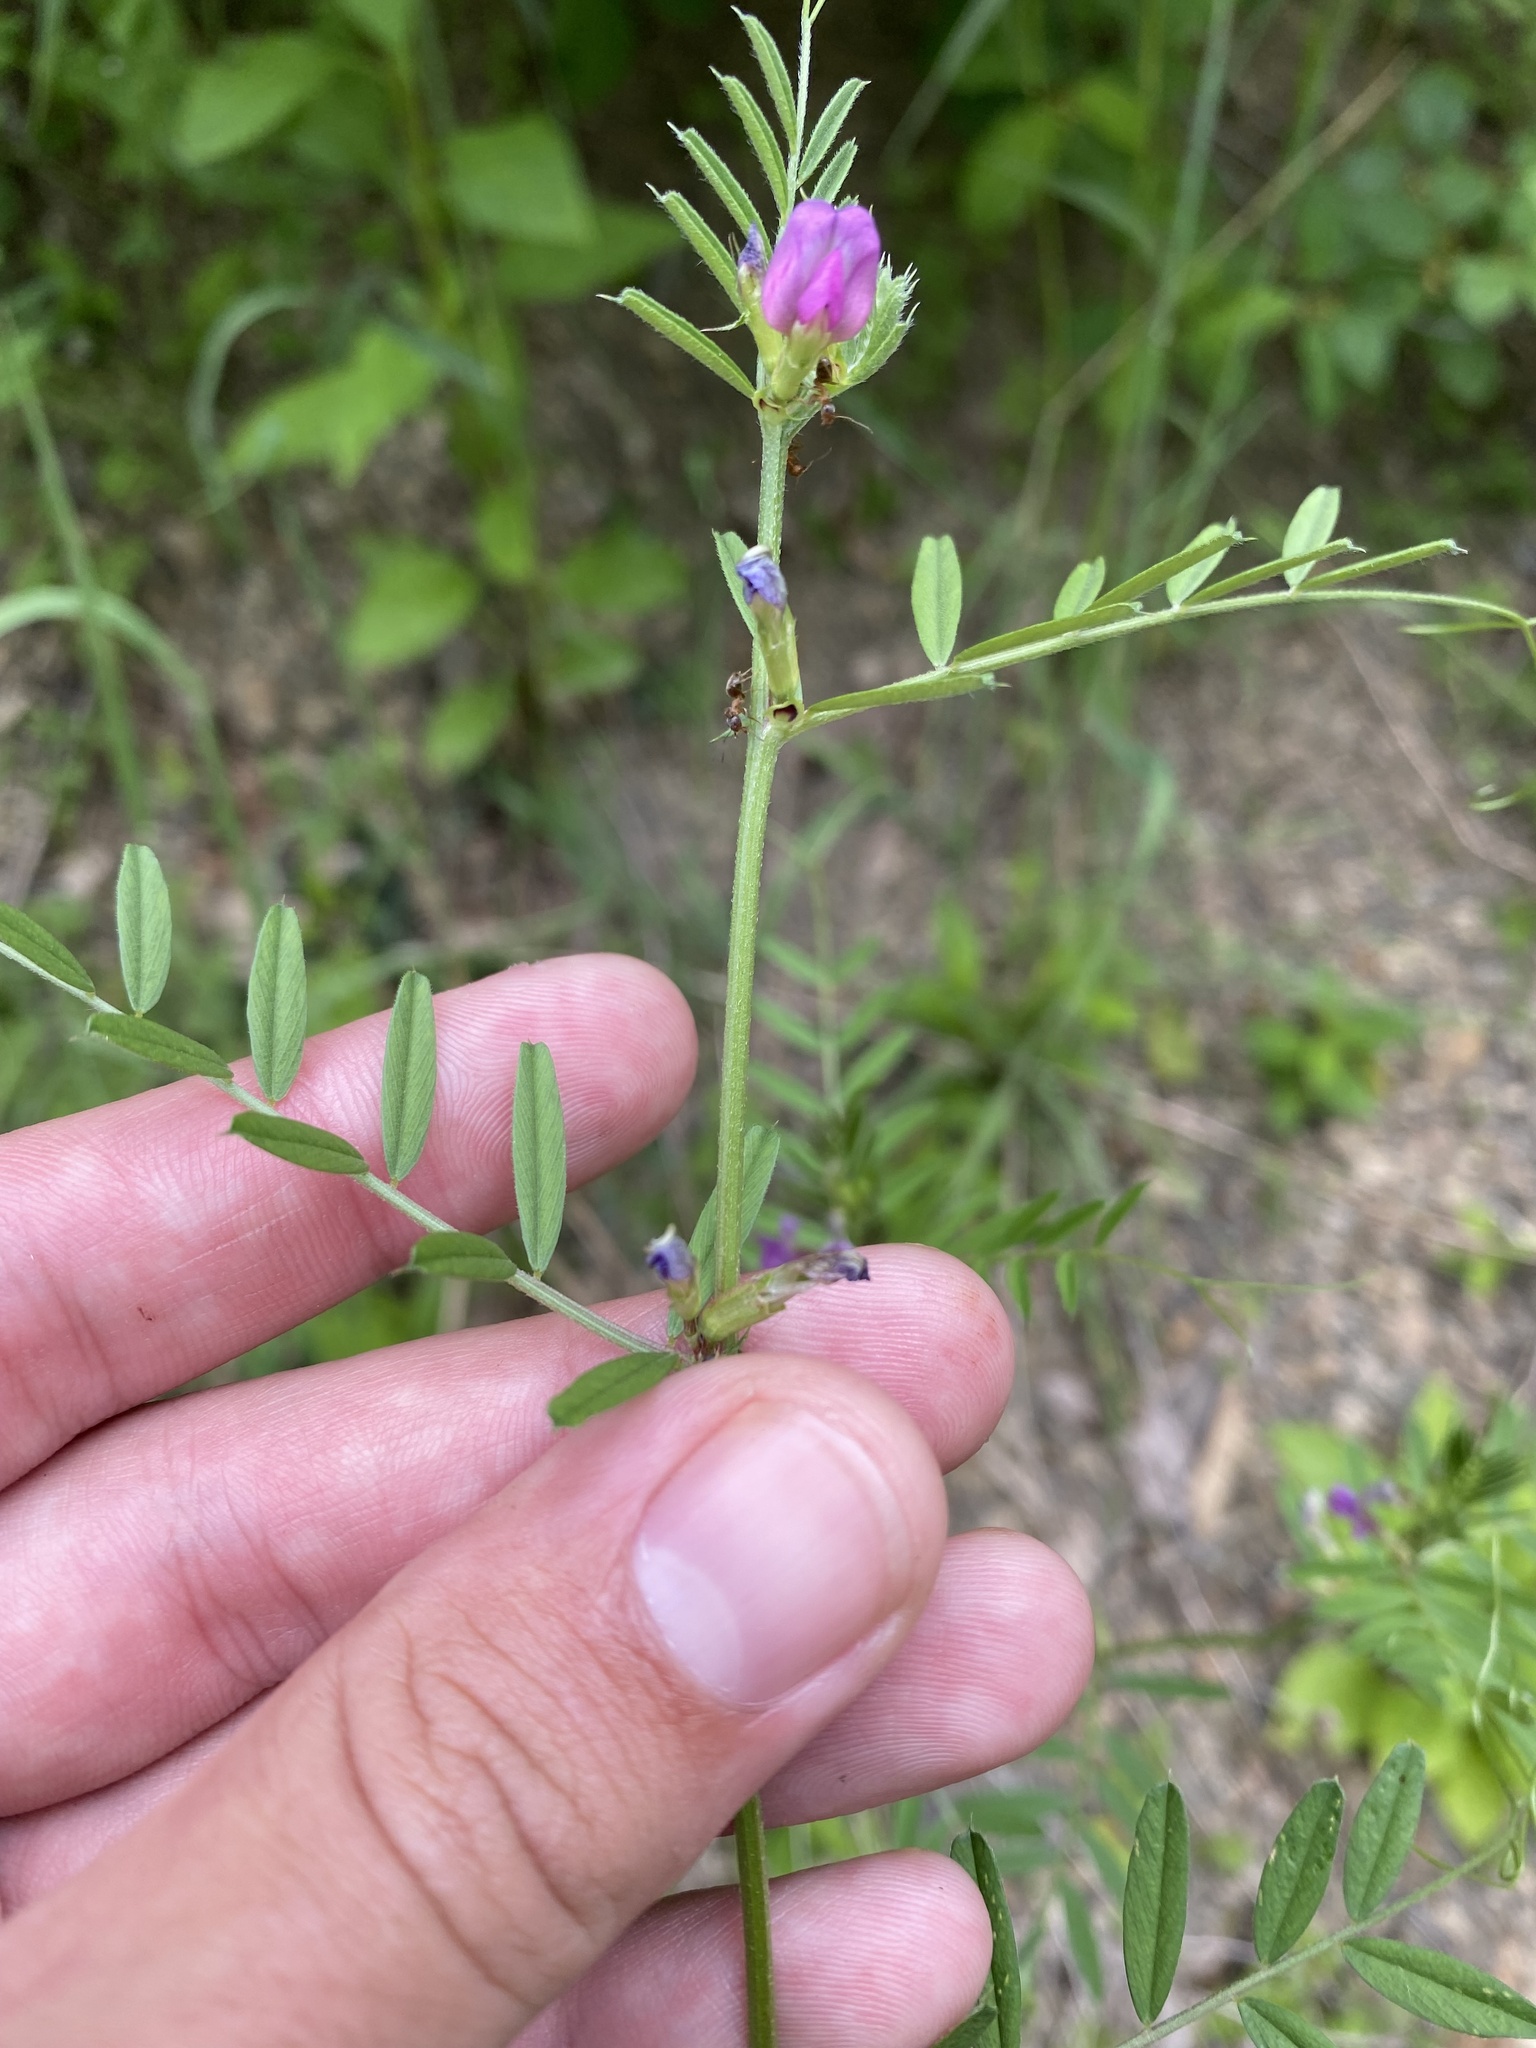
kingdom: Plantae
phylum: Tracheophyta
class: Magnoliopsida
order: Fabales
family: Fabaceae
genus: Vicia
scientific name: Vicia sativa
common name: Garden vetch
